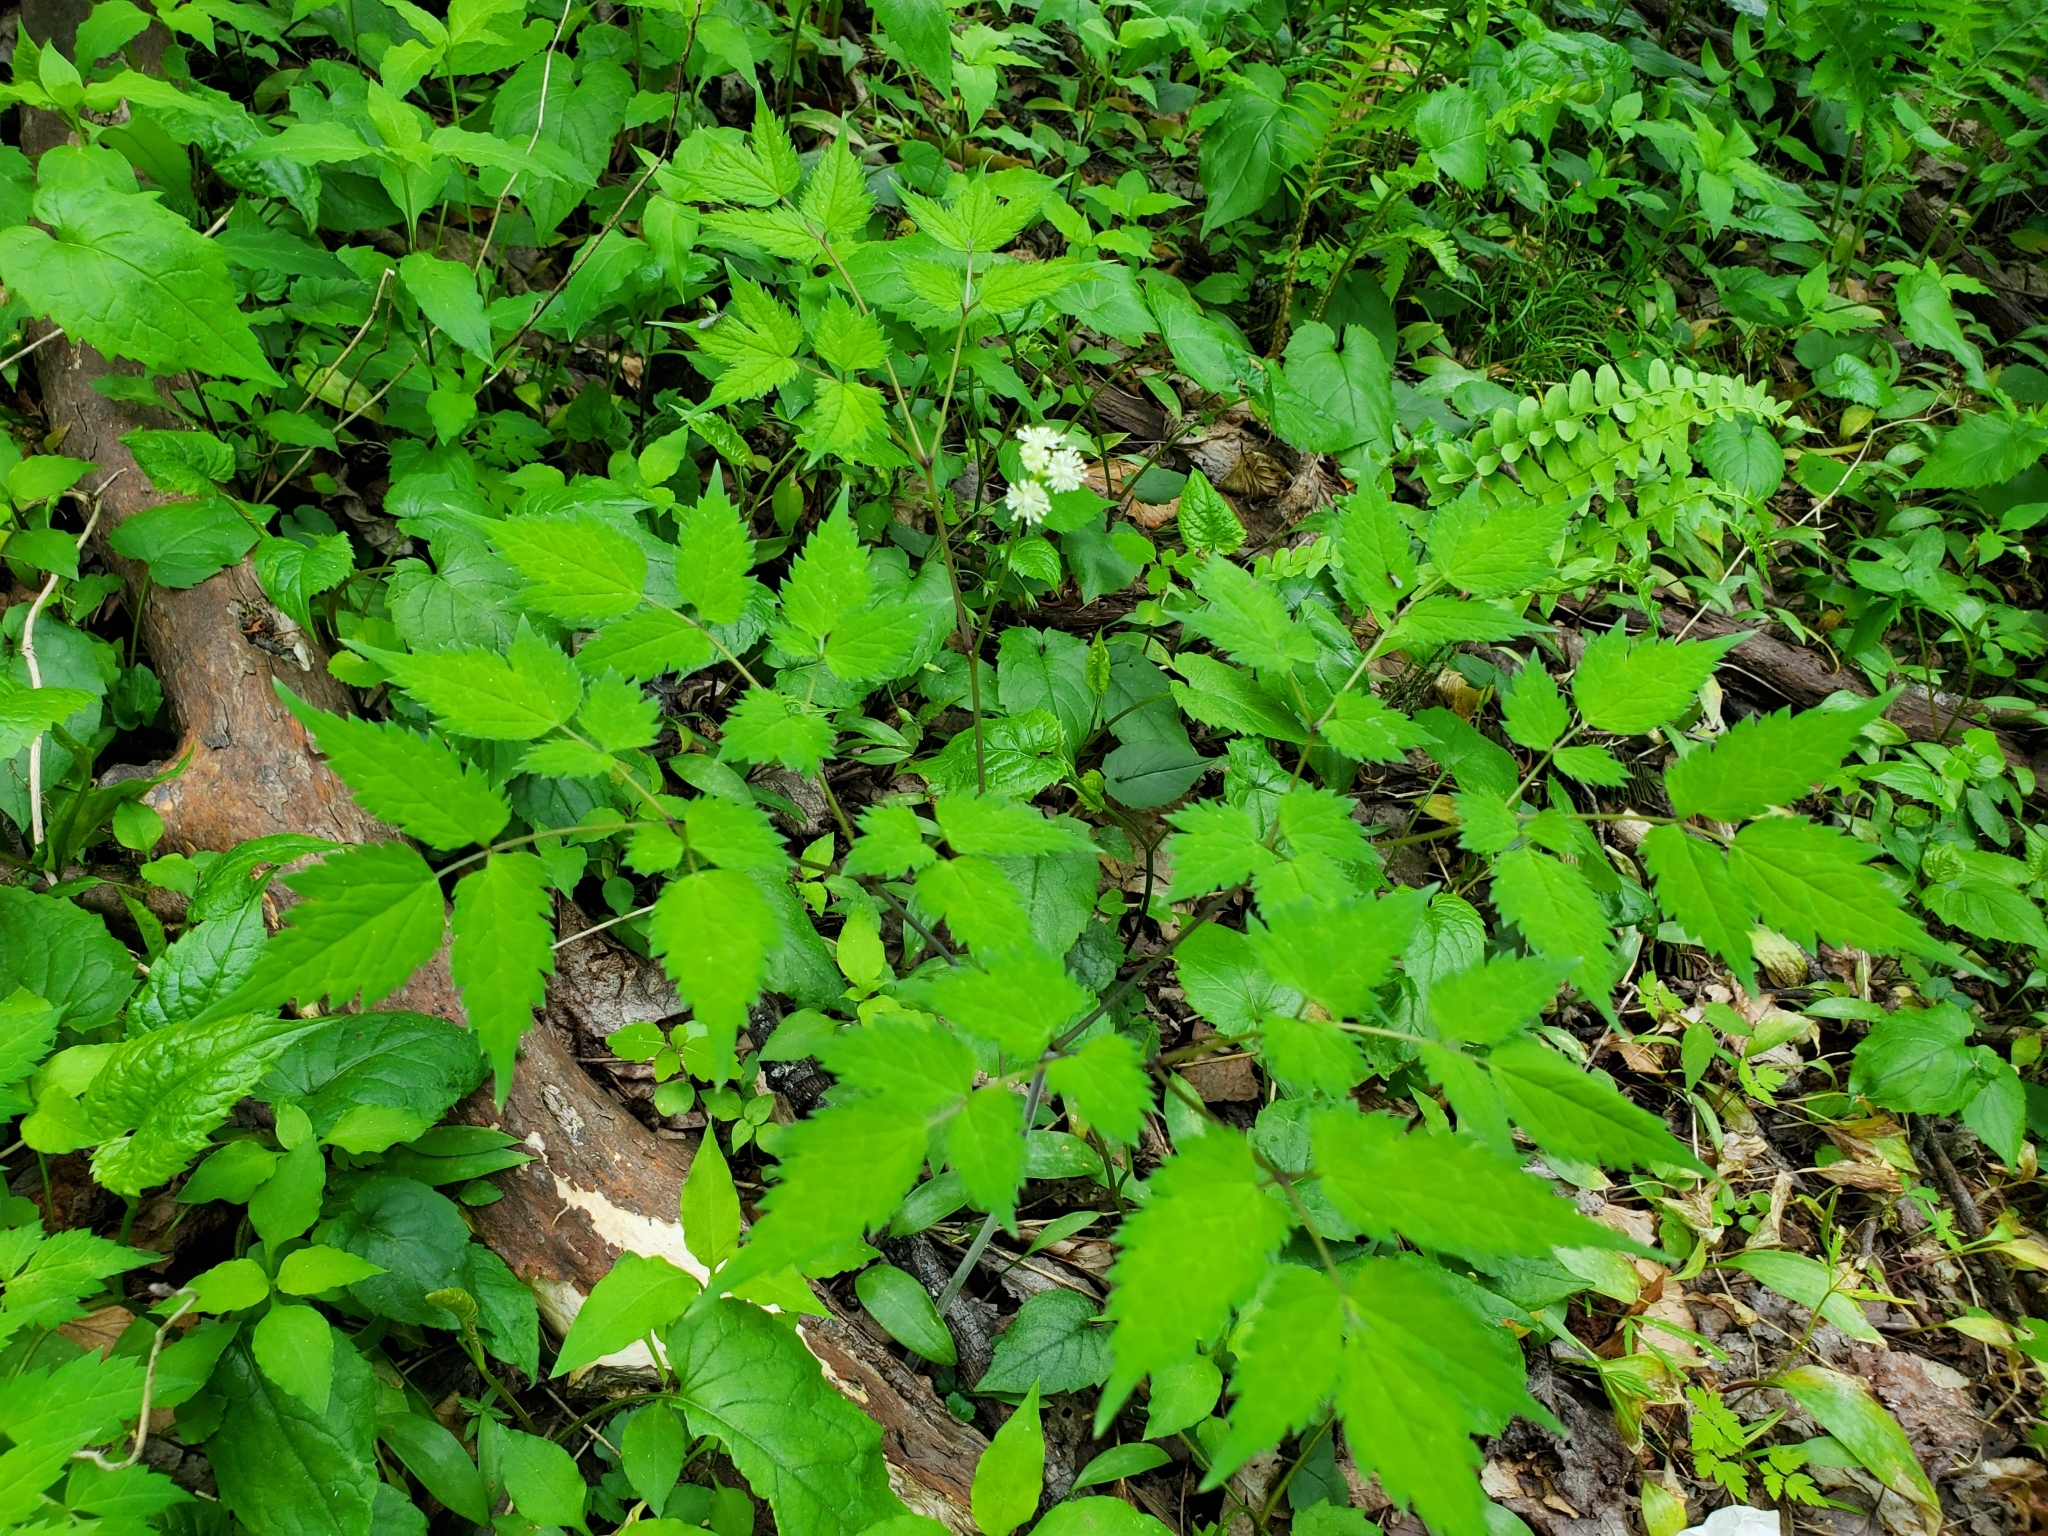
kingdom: Plantae
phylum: Tracheophyta
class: Magnoliopsida
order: Ranunculales
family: Ranunculaceae
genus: Actaea
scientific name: Actaea pachypoda
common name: Doll's-eyes
